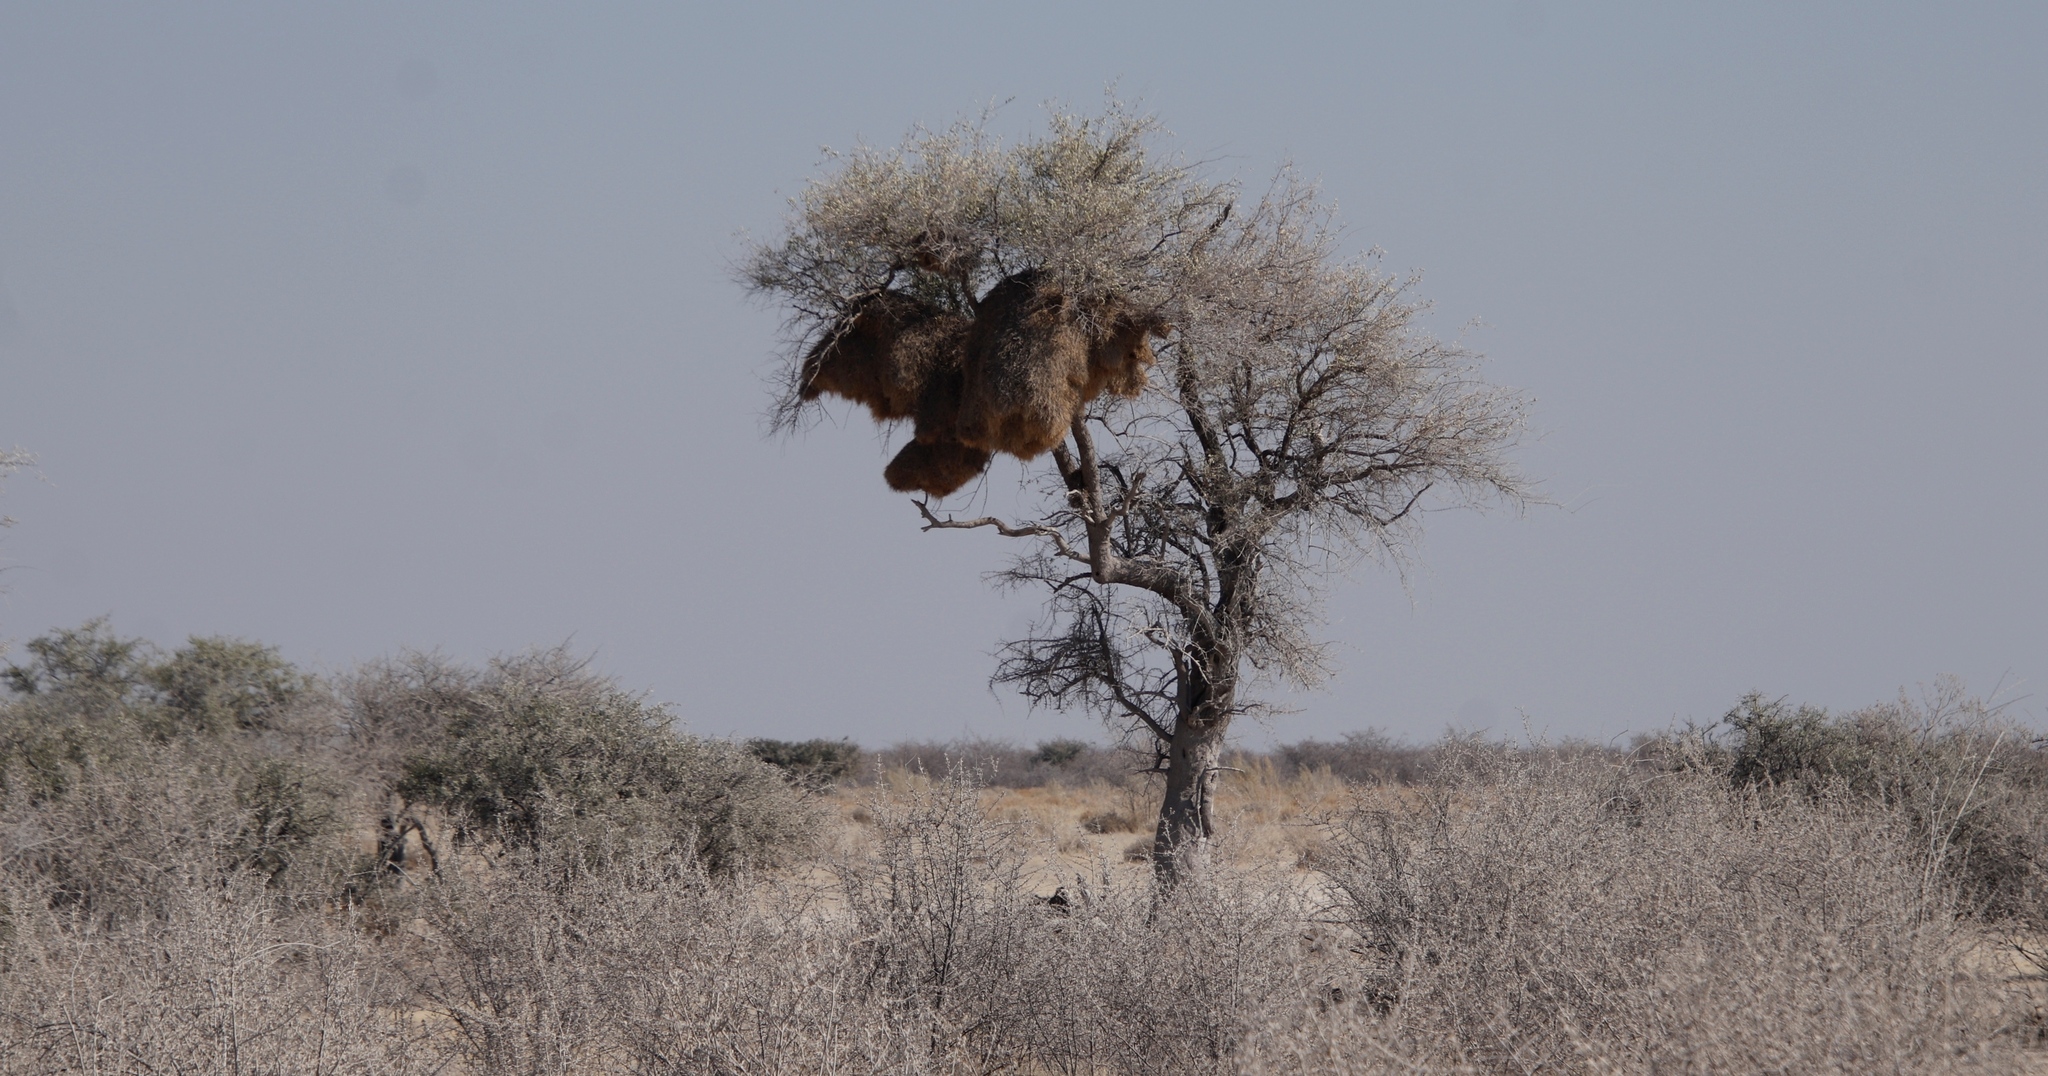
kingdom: Plantae
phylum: Tracheophyta
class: Magnoliopsida
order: Myrtales
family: Combretaceae
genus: Combretum
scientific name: Combretum imberbe
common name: Leadwood
